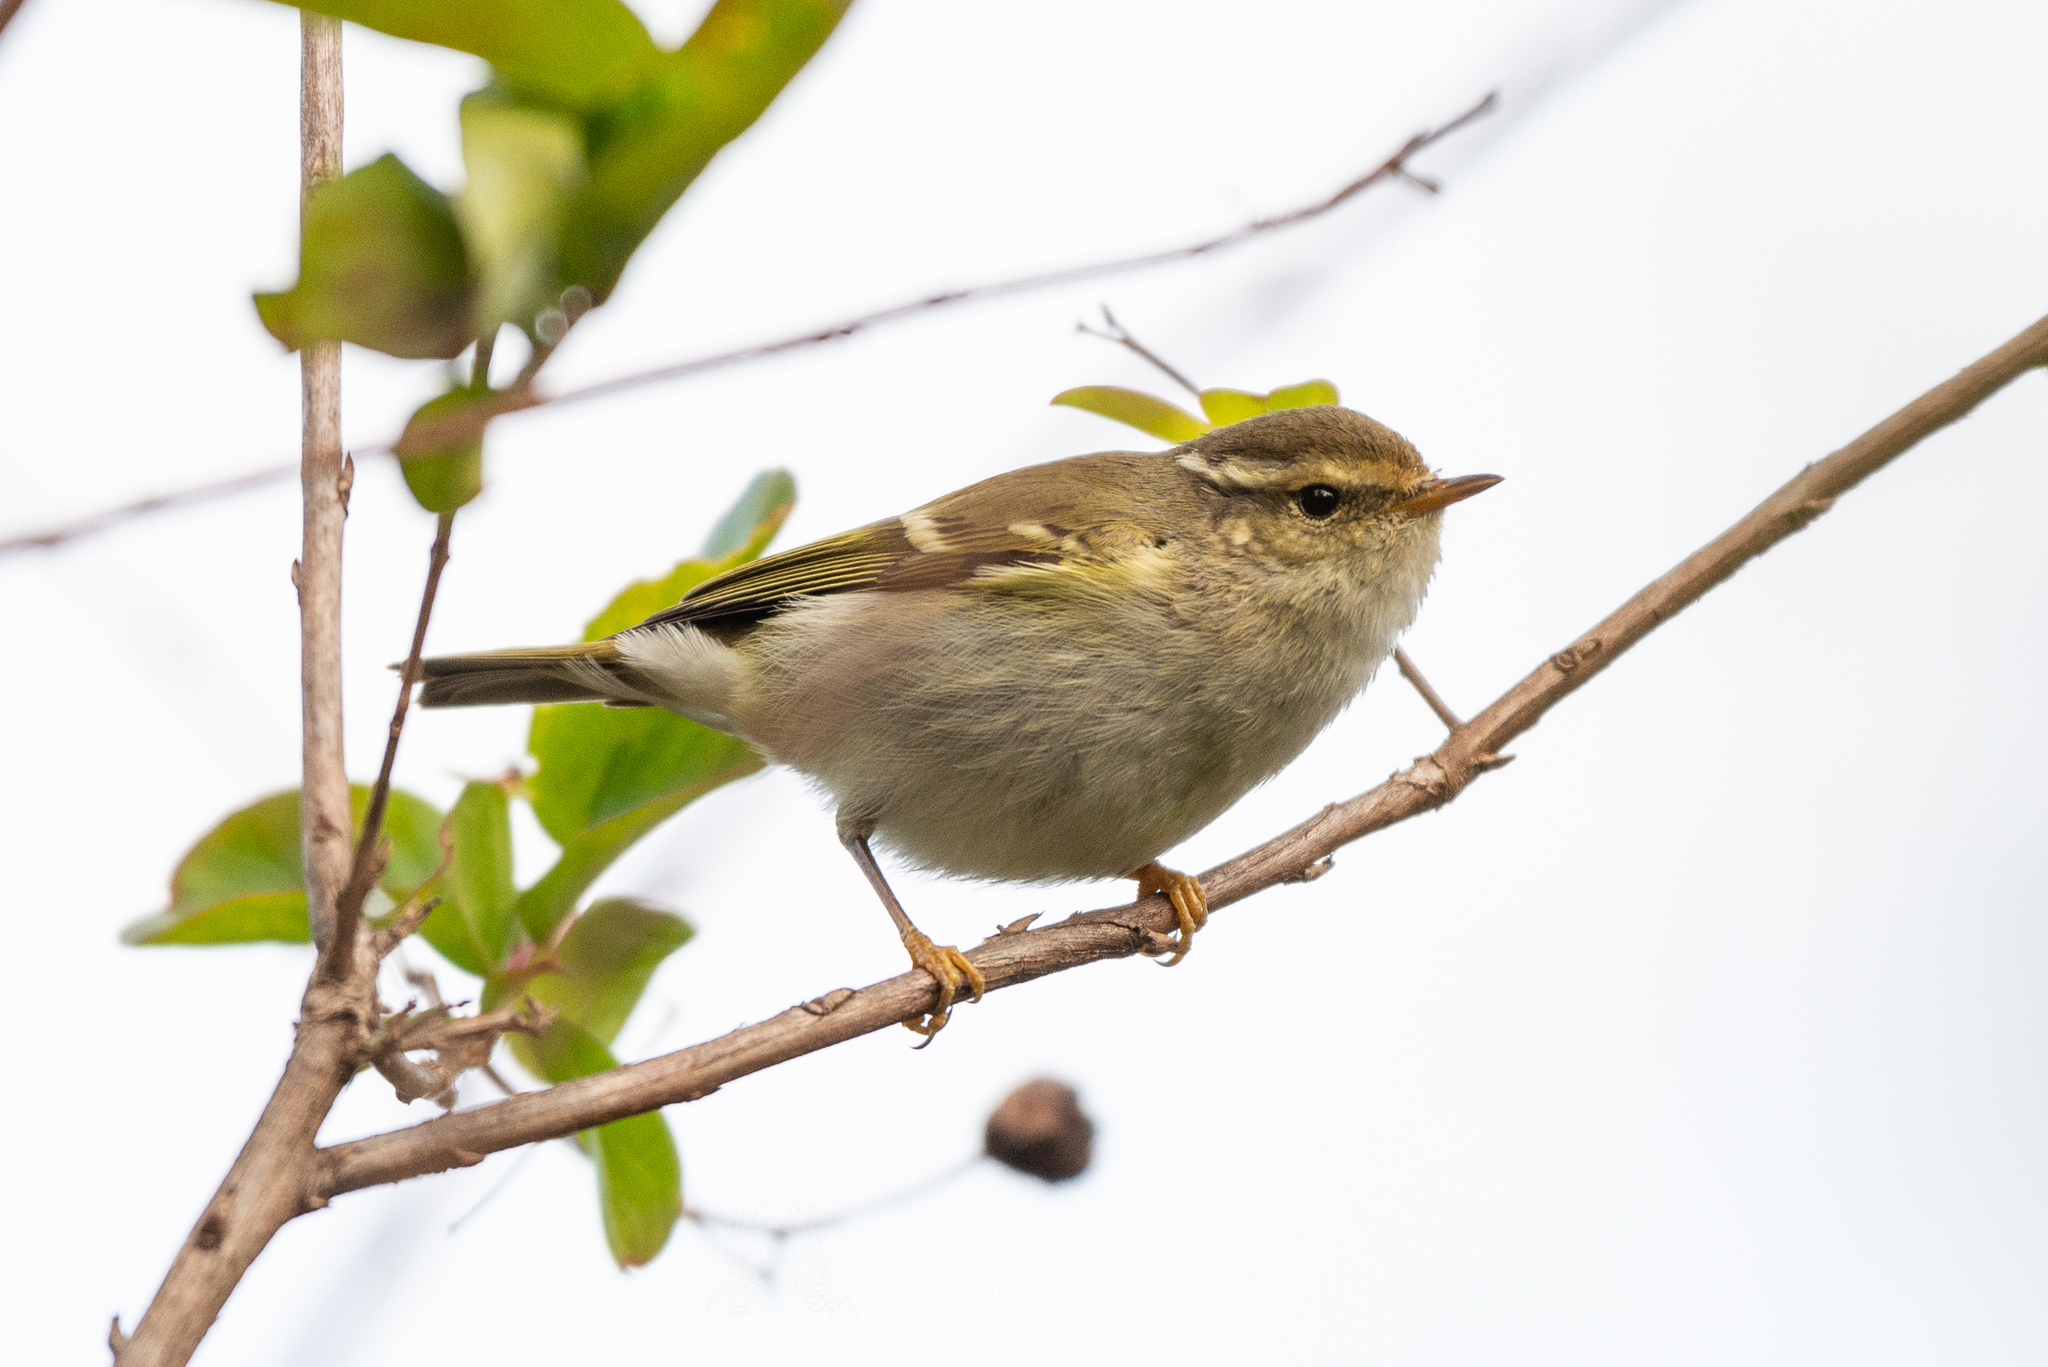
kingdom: Animalia
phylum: Chordata
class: Aves
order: Passeriformes
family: Phylloscopidae
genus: Phylloscopus
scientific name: Phylloscopus inornatus
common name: Yellow-browed warbler
